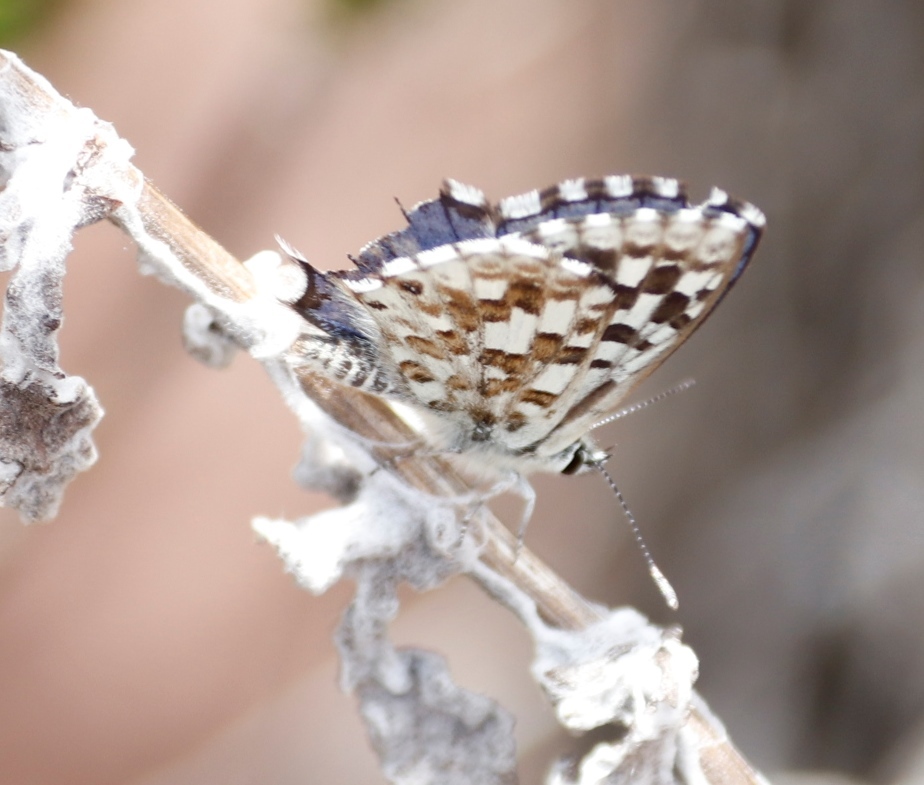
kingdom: Animalia
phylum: Arthropoda
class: Insecta
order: Lepidoptera
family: Lycaenidae
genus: Tarucus
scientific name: Tarucus thespis
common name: Vivid dotted blue
